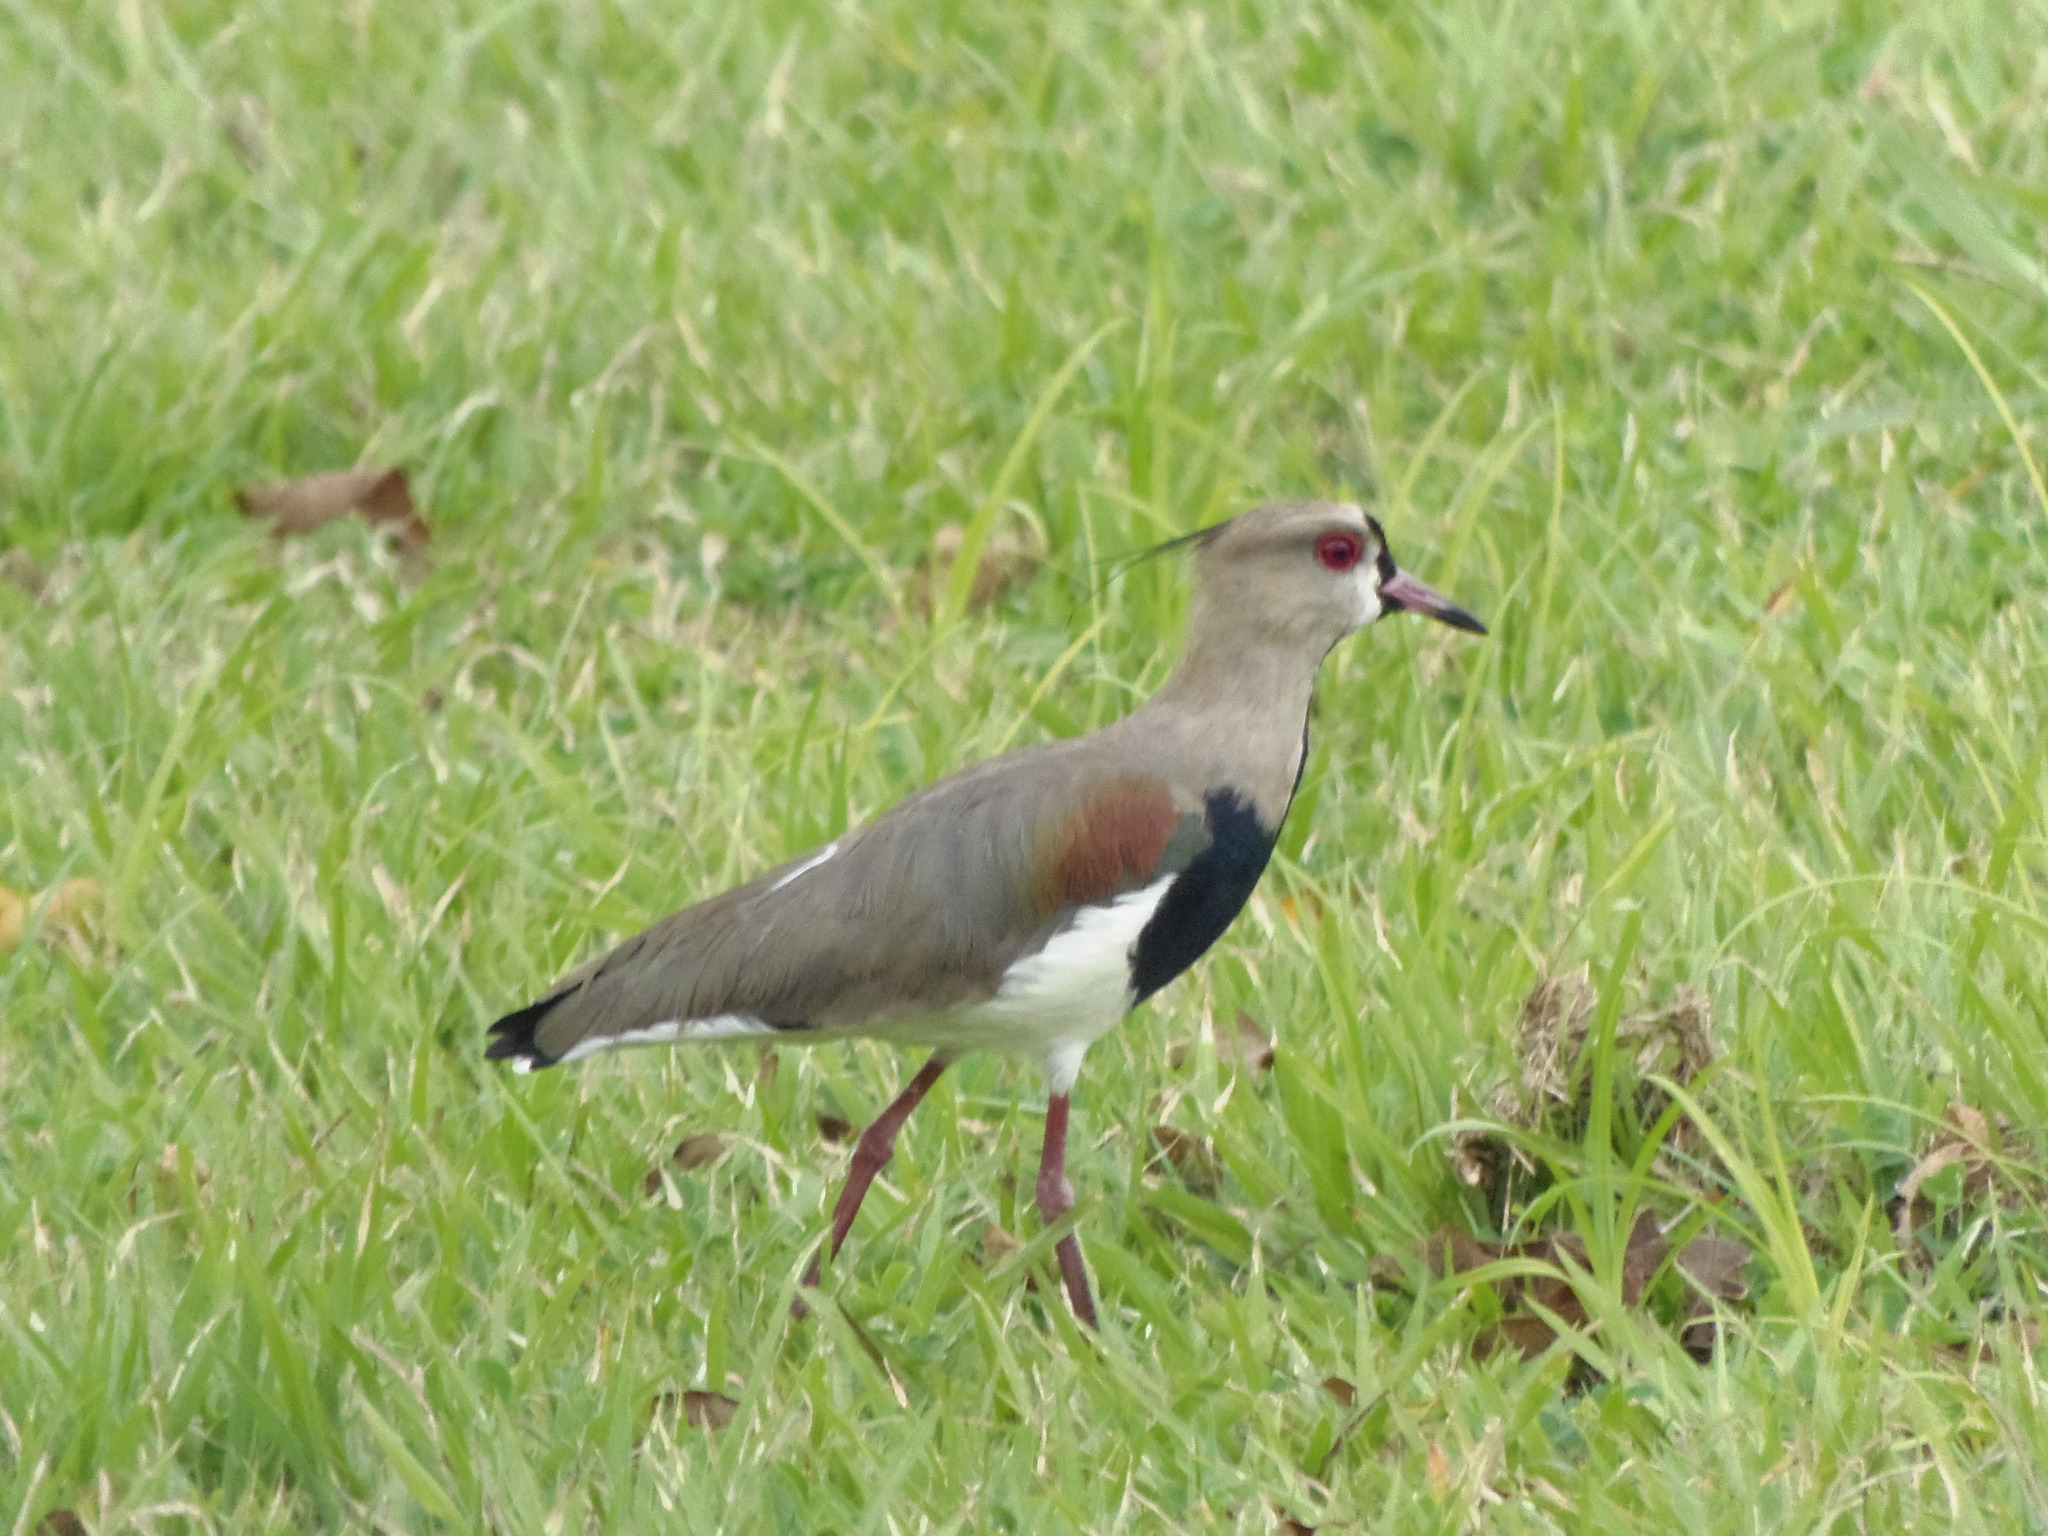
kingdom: Animalia
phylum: Chordata
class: Aves
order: Charadriiformes
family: Charadriidae
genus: Vanellus
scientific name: Vanellus chilensis
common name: Southern lapwing
